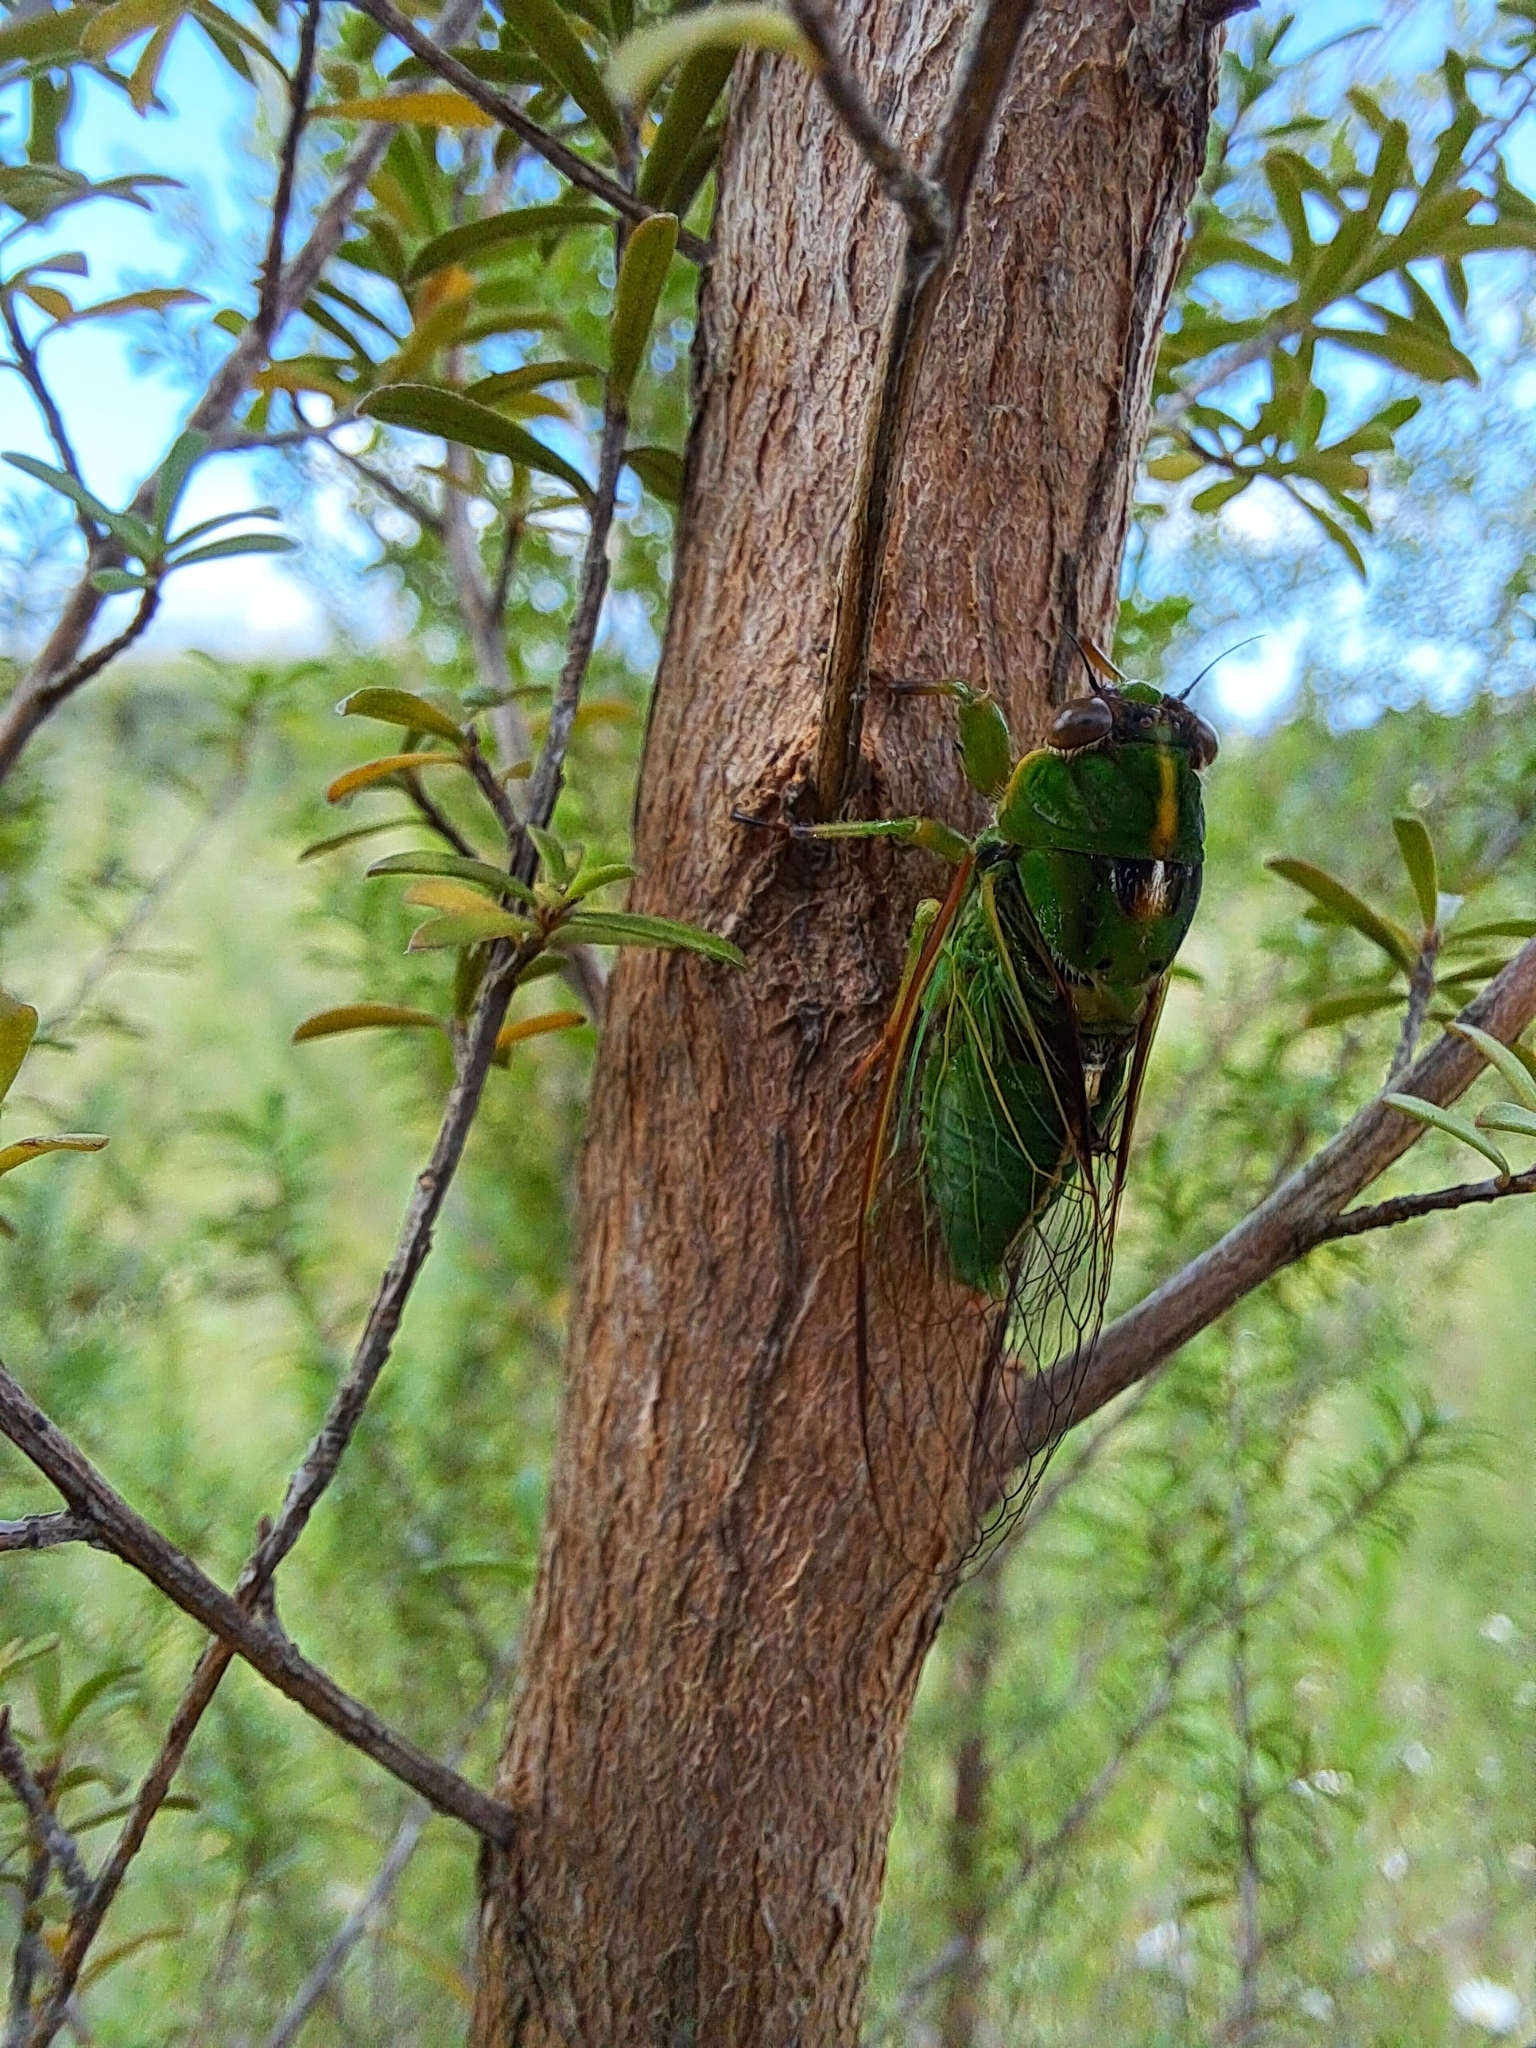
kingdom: Animalia
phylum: Arthropoda
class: Insecta
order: Hemiptera
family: Cicadidae
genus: Kikihia
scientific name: Kikihia cutora
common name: Northern snoring cicada
